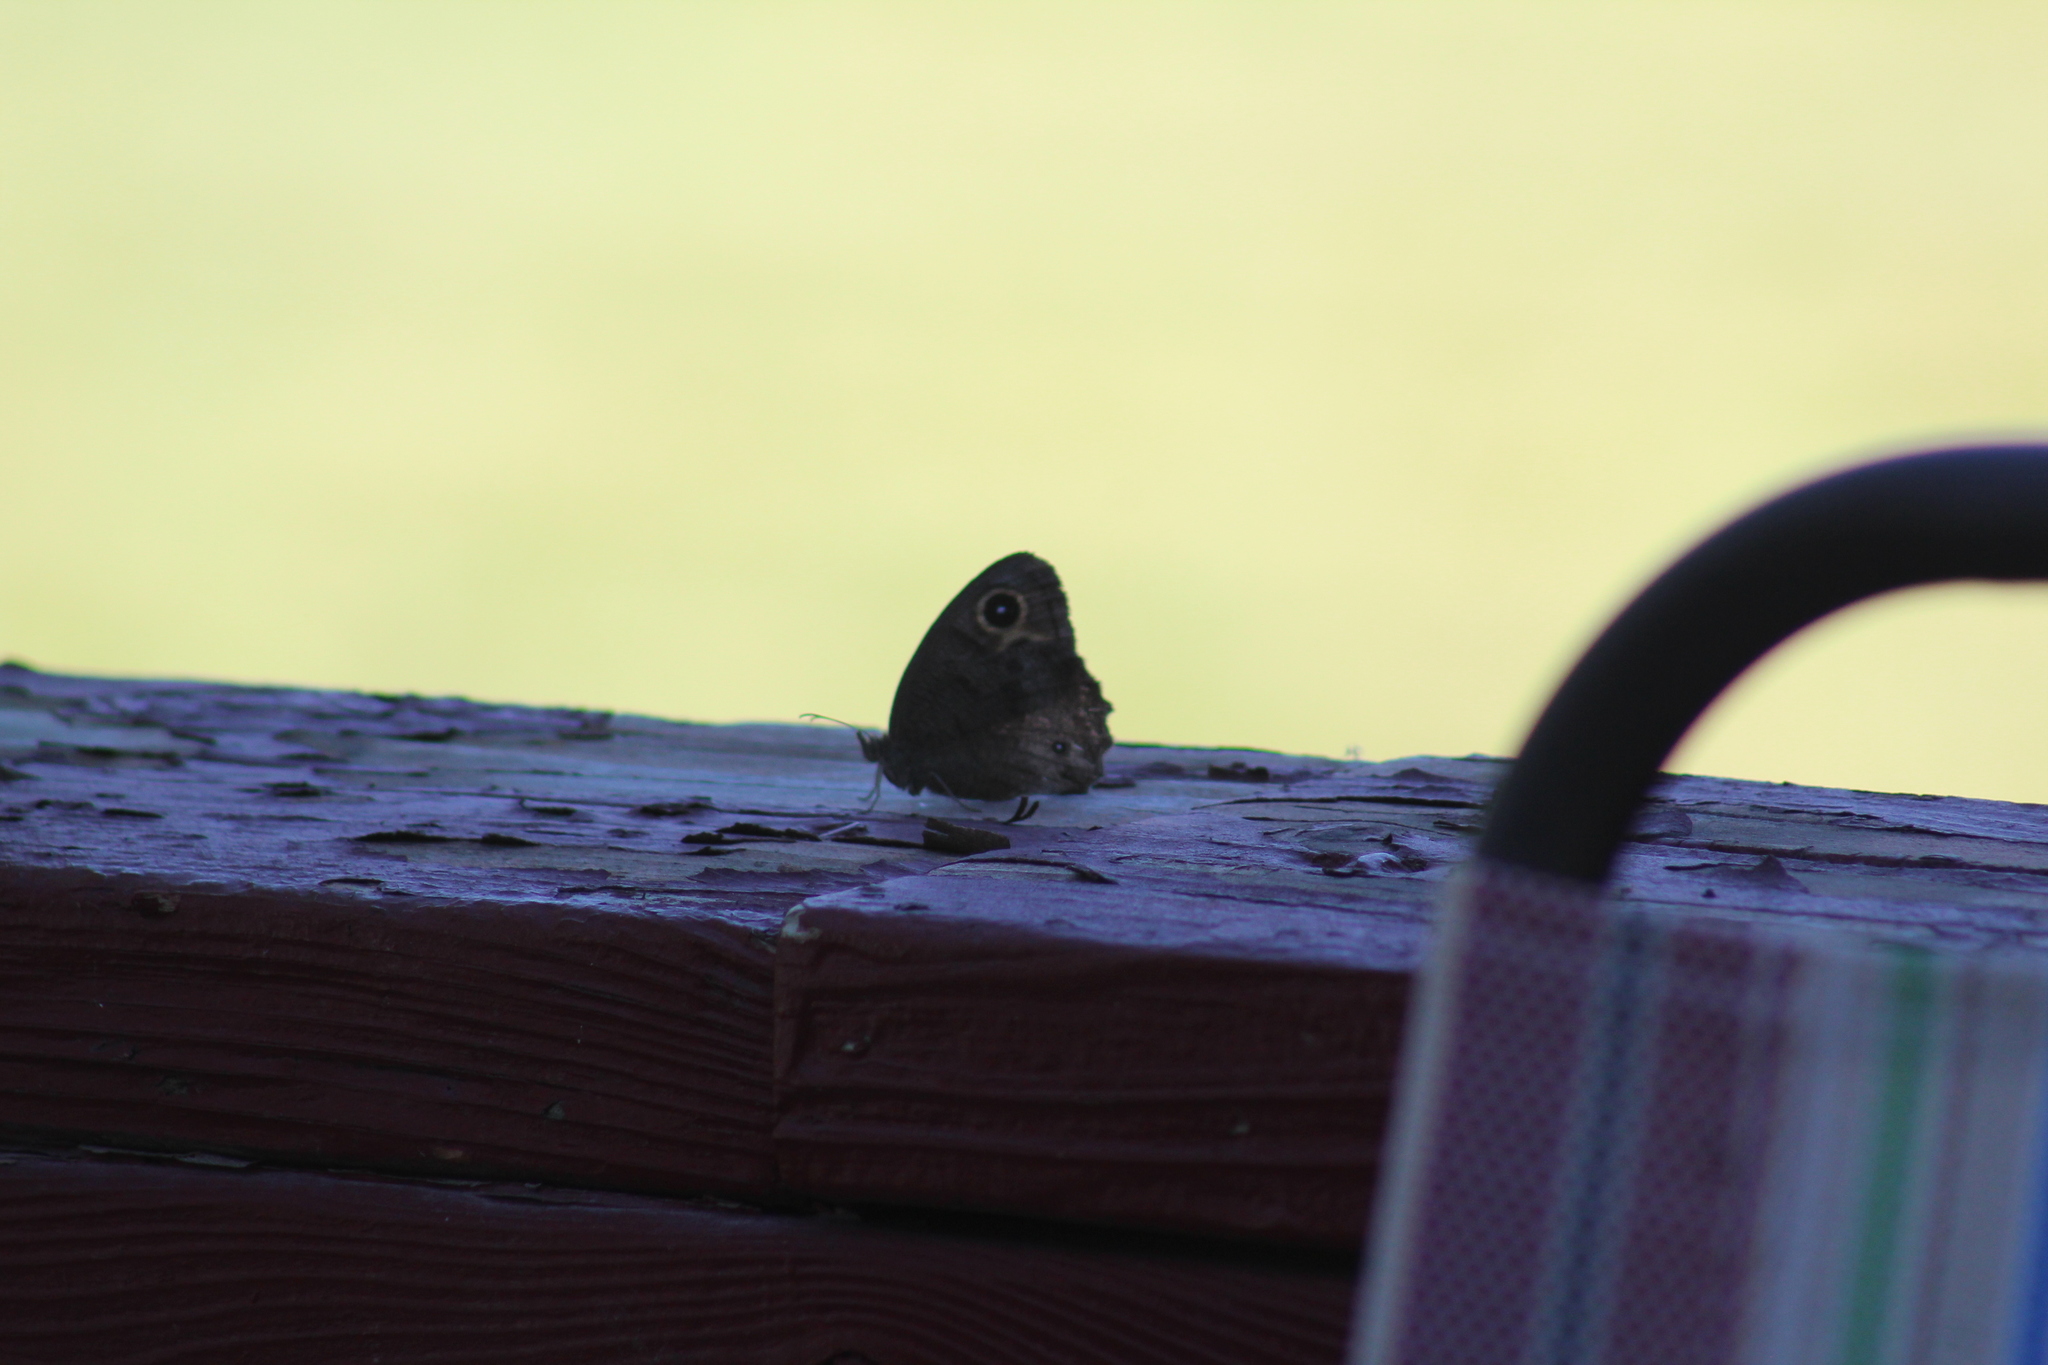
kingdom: Animalia
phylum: Arthropoda
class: Insecta
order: Lepidoptera
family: Nymphalidae
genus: Cercyonis
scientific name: Cercyonis pegala
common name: Common wood-nymph
